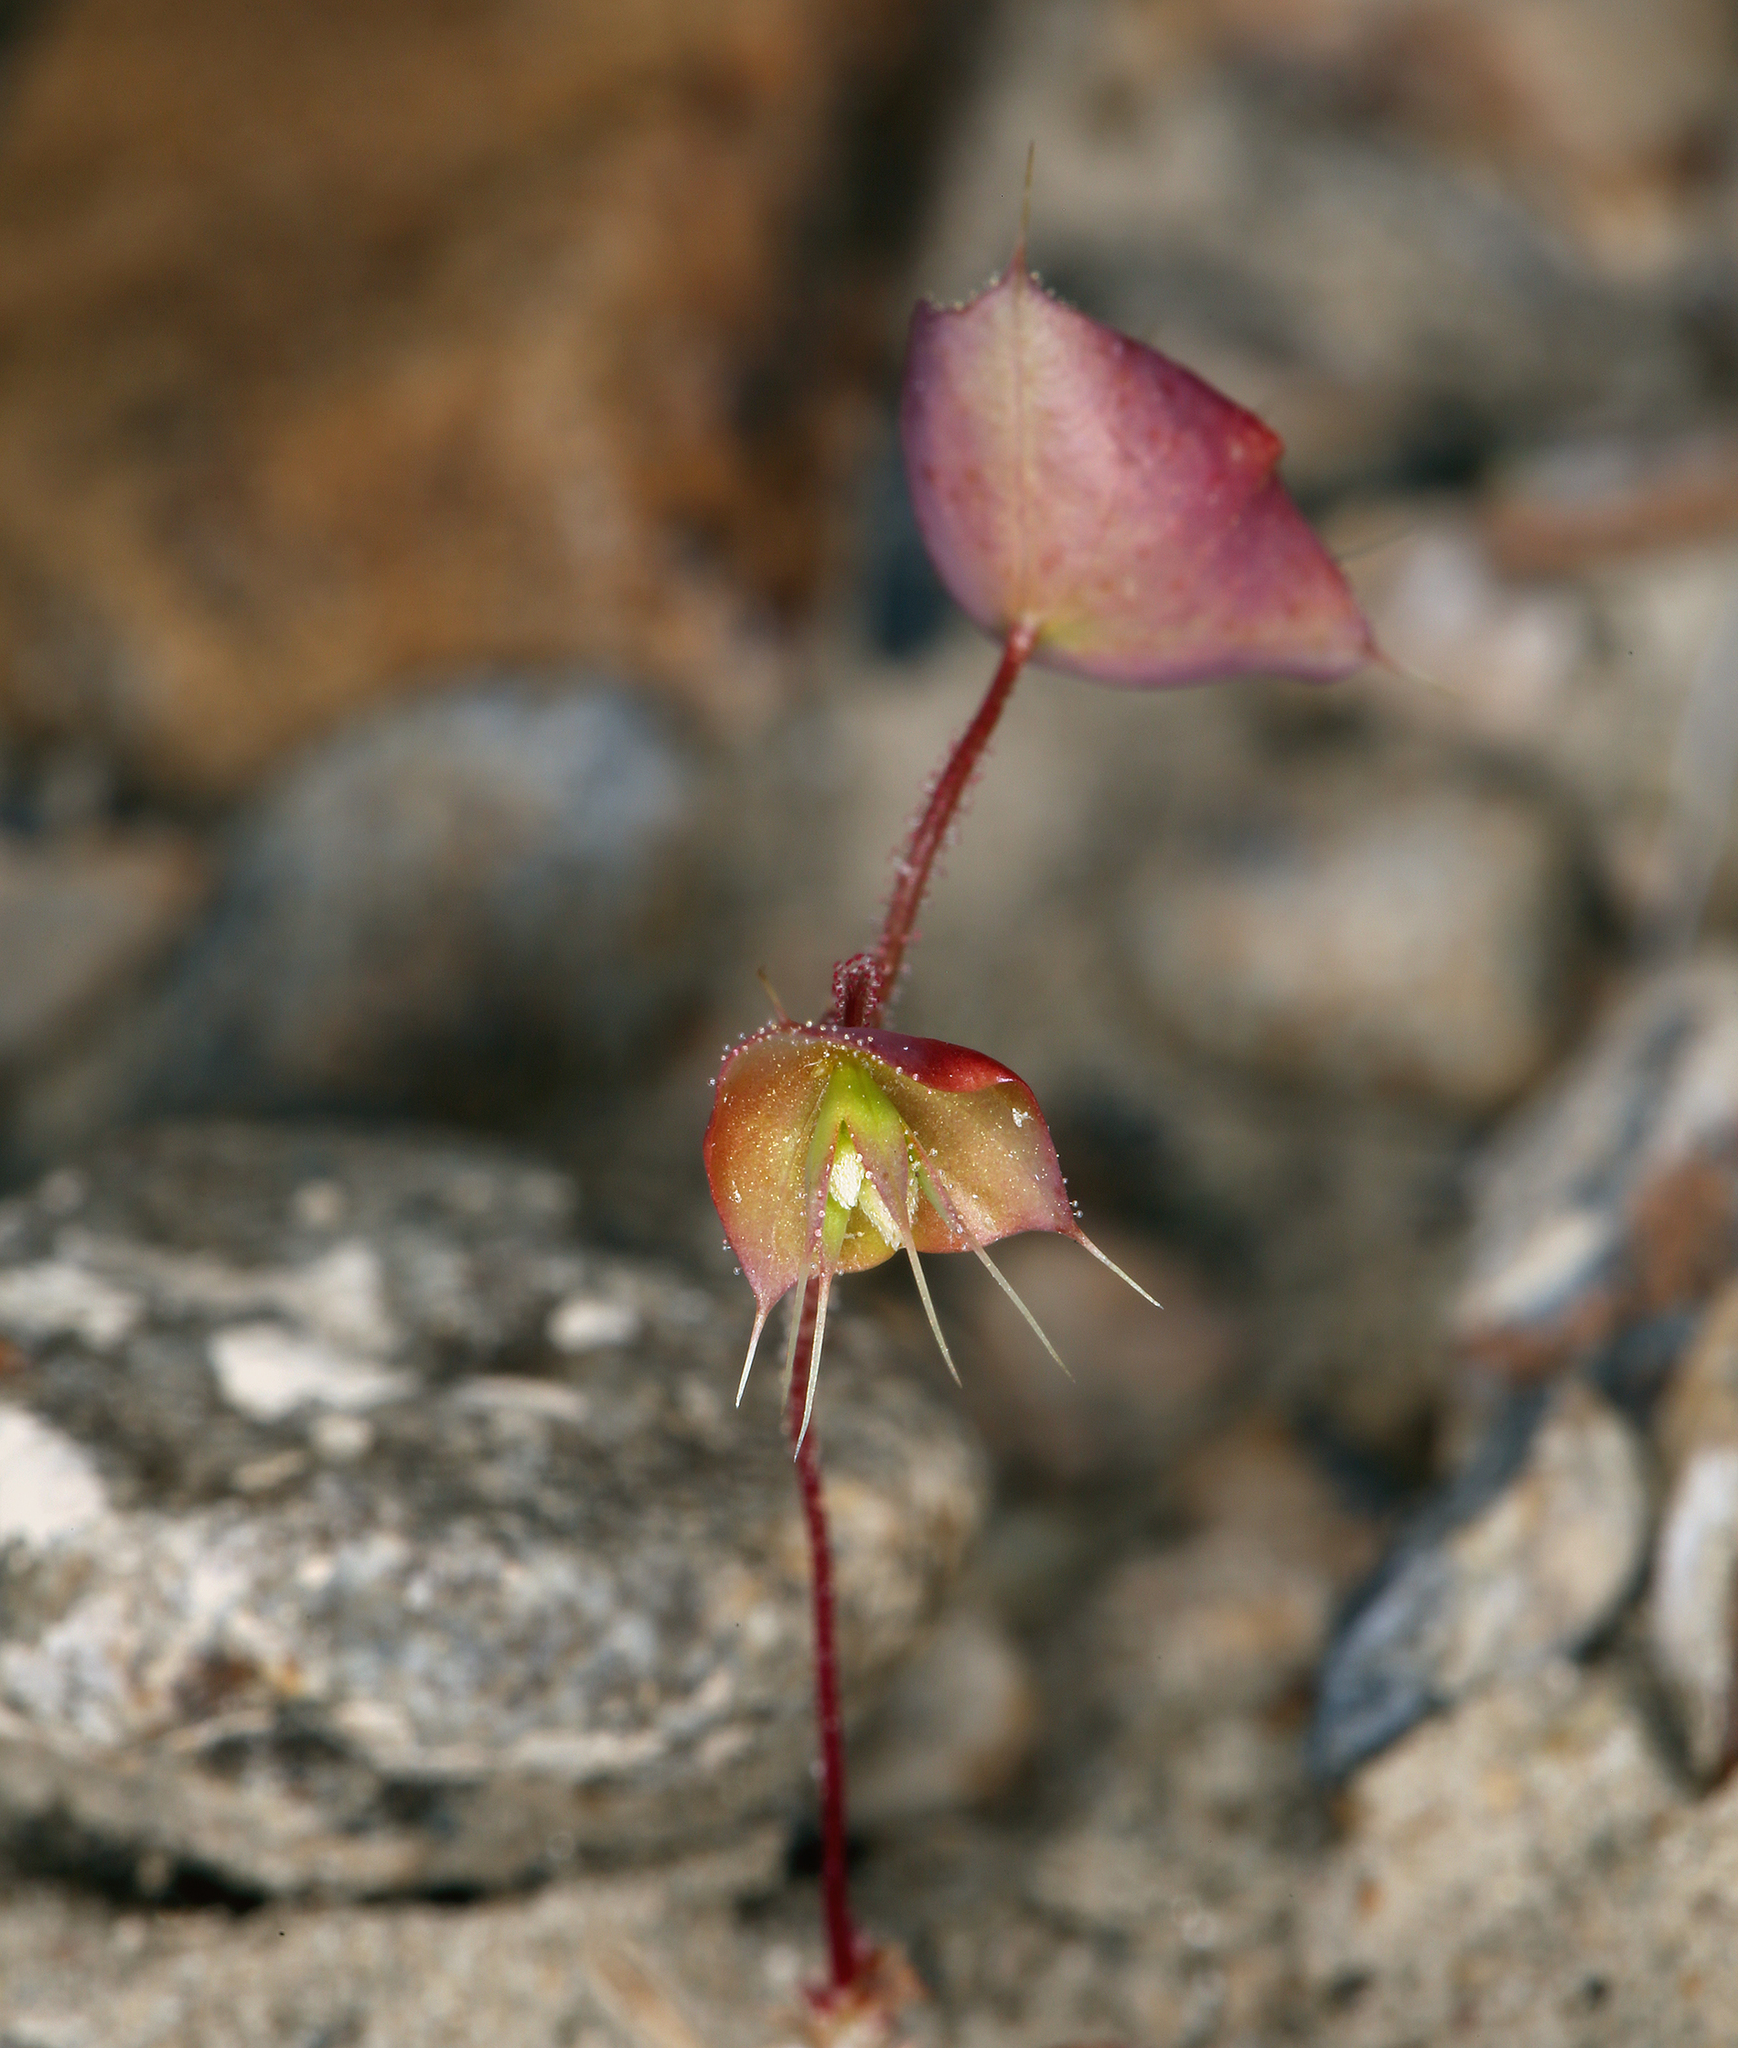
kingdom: Plantae
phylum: Tracheophyta
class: Magnoliopsida
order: Caryophyllales
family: Polygonaceae
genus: Oxytheca
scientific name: Oxytheca perfoliata
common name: Round-leaf puncturebract
